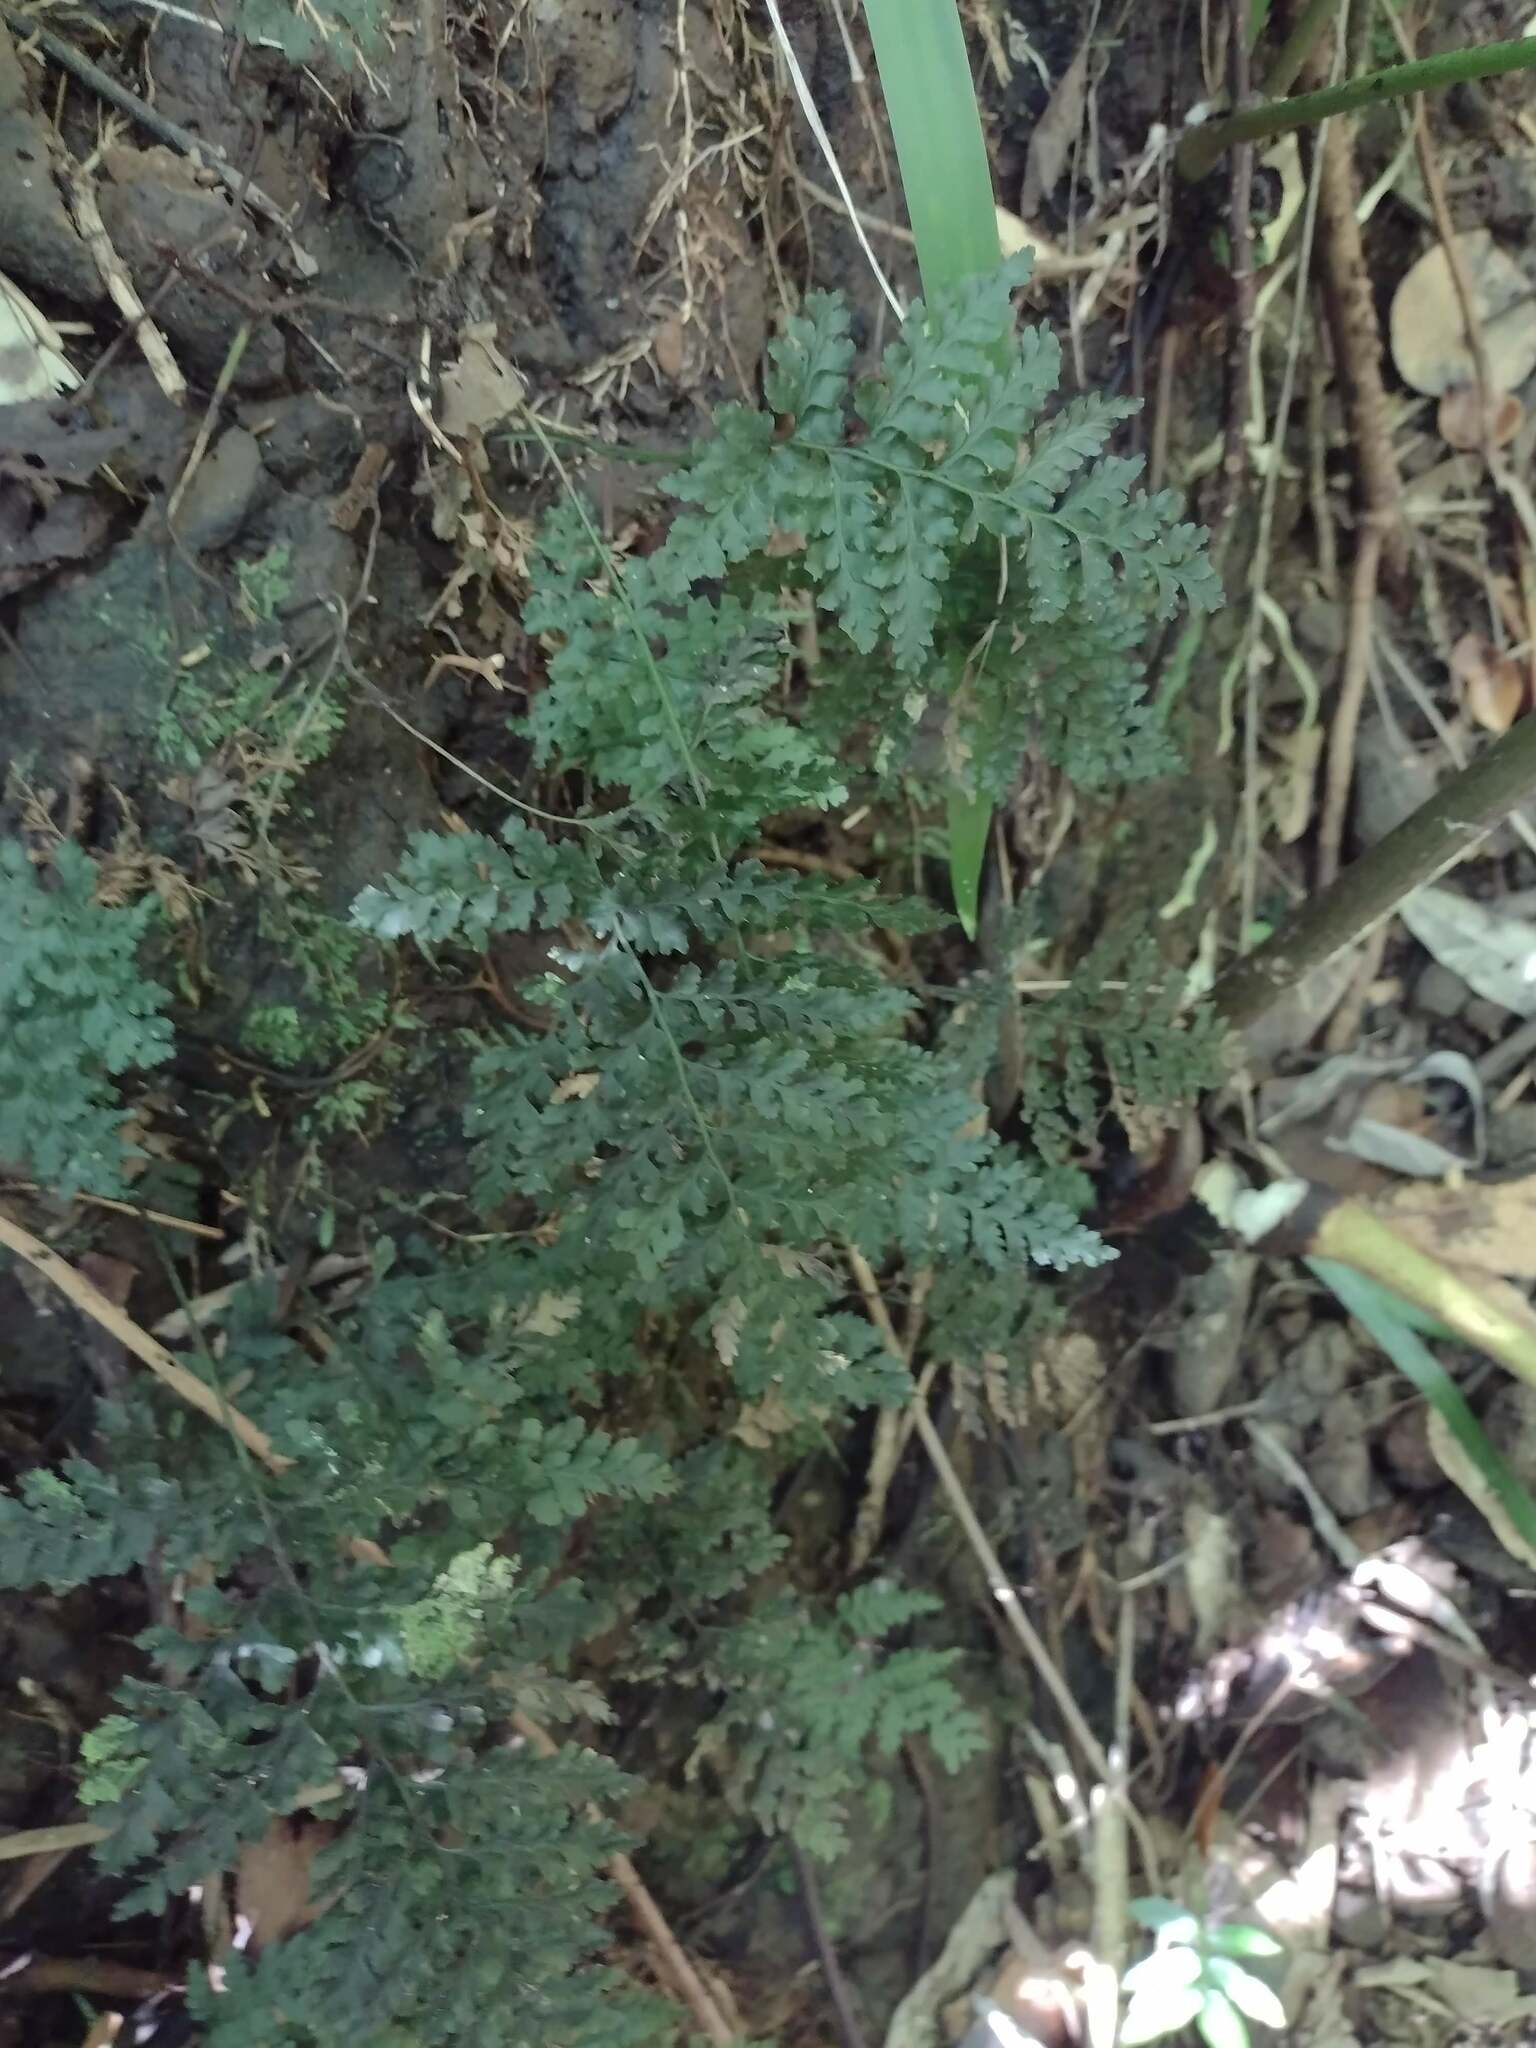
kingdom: Plantae
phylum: Tracheophyta
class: Polypodiopsida
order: Hymenophyllales
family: Hymenophyllaceae
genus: Vandenboschia
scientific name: Vandenboschia davallioides
